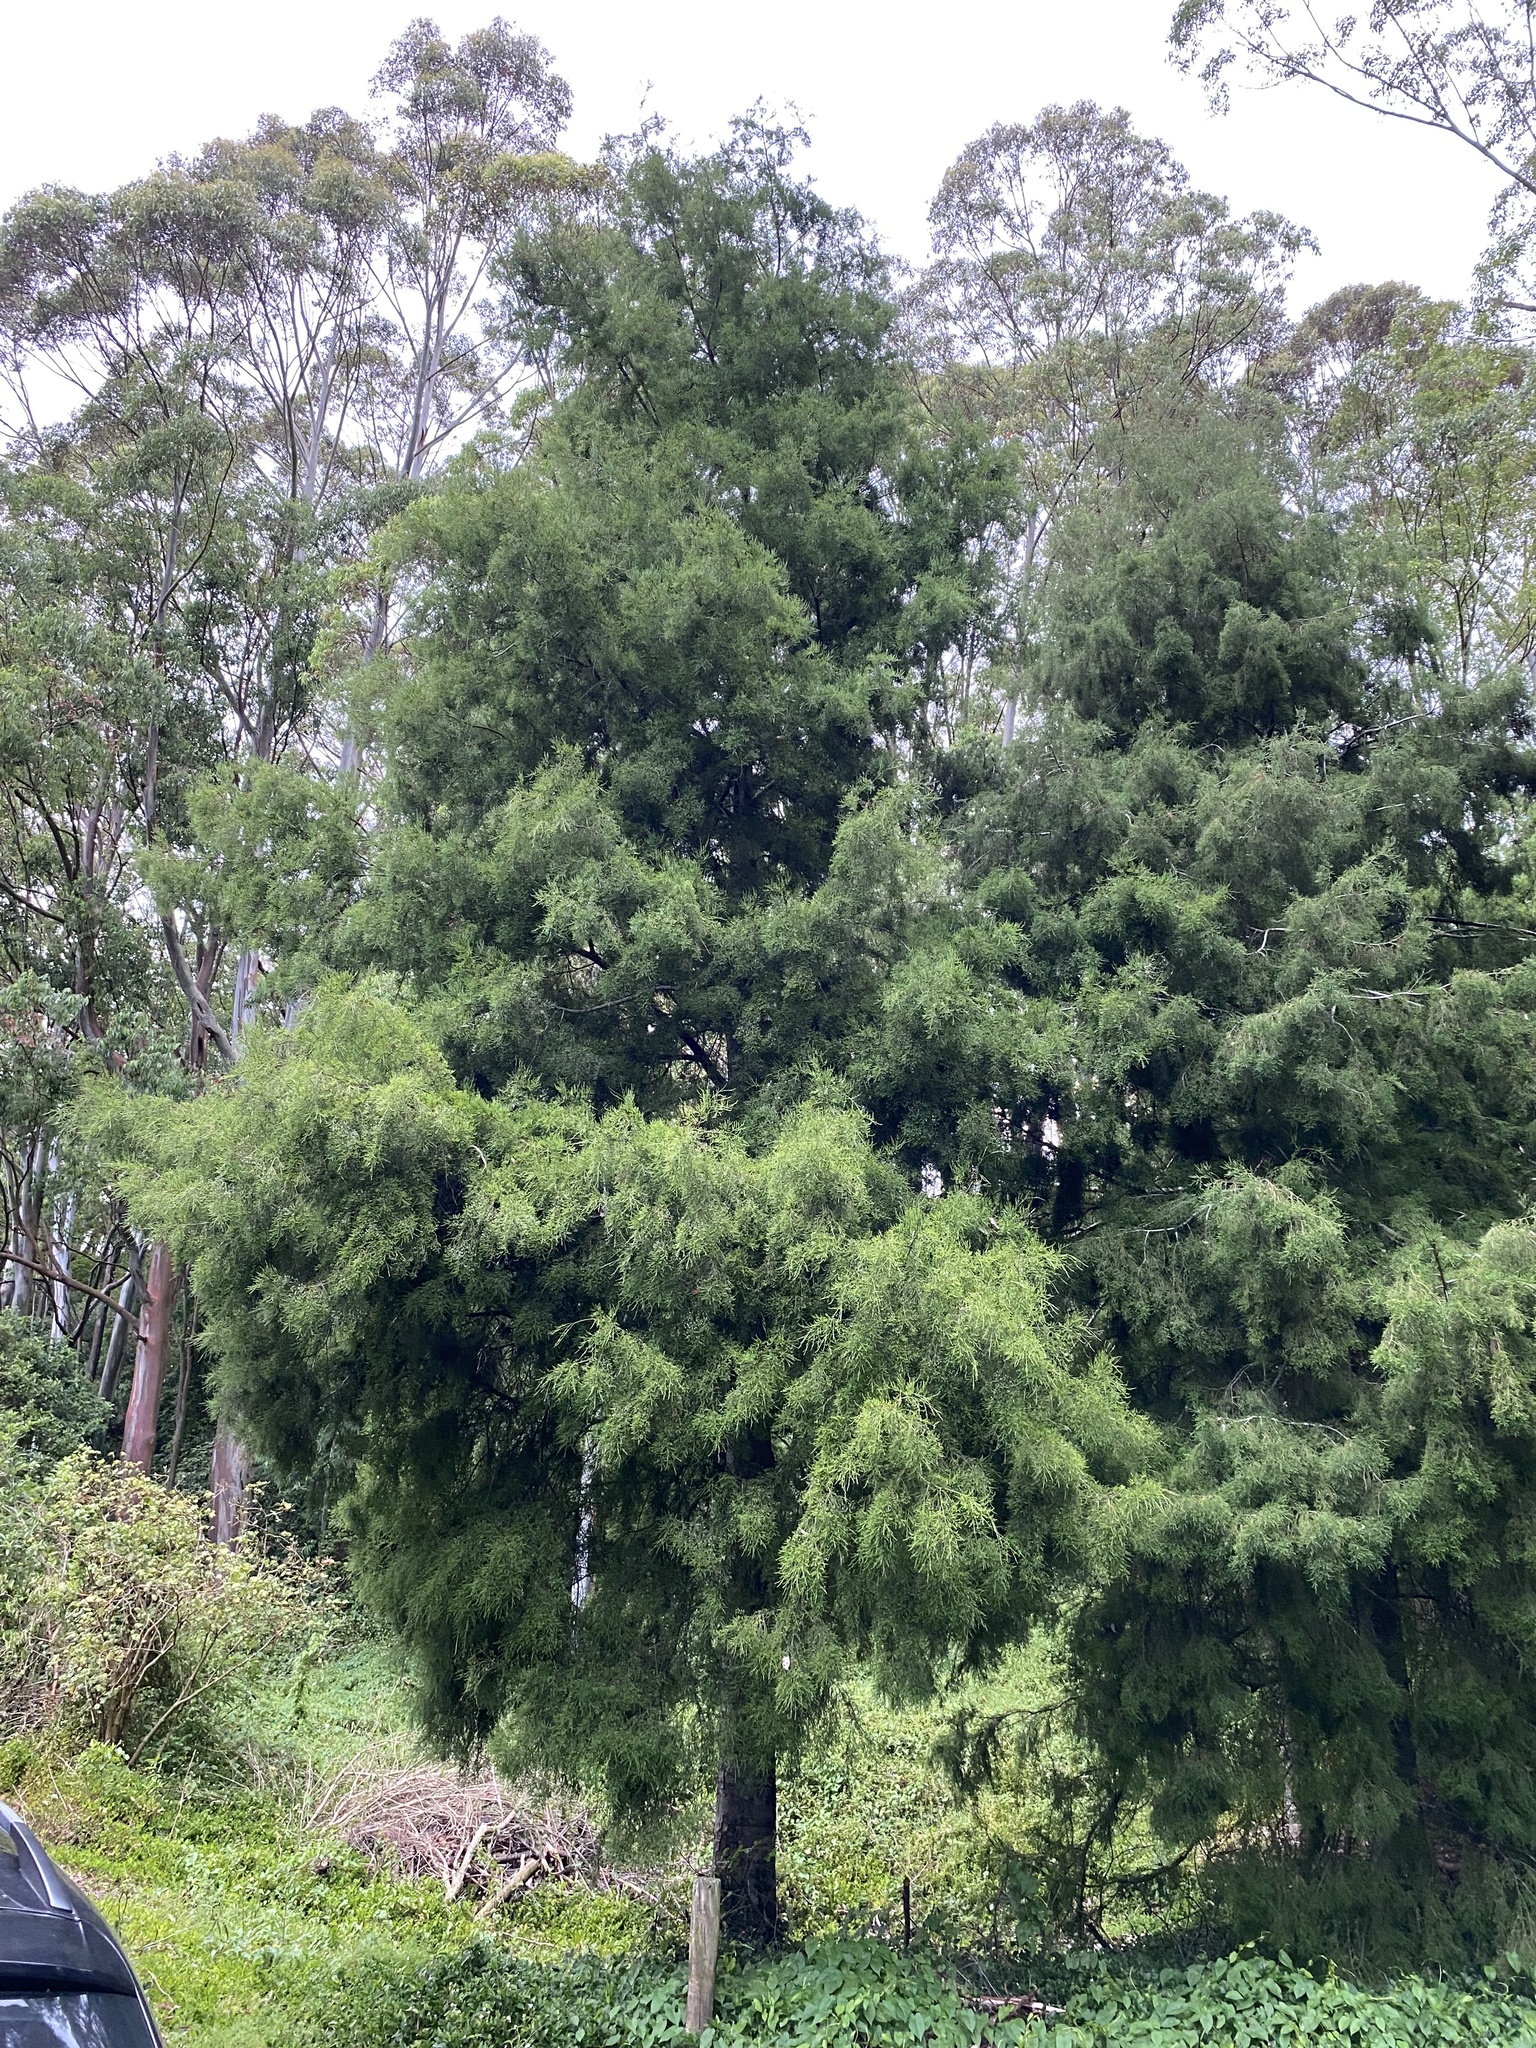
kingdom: Plantae
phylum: Tracheophyta
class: Pinopsida
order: Pinales
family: Podocarpaceae
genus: Dacrycarpus
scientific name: Dacrycarpus dacrydioides
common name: White pine
